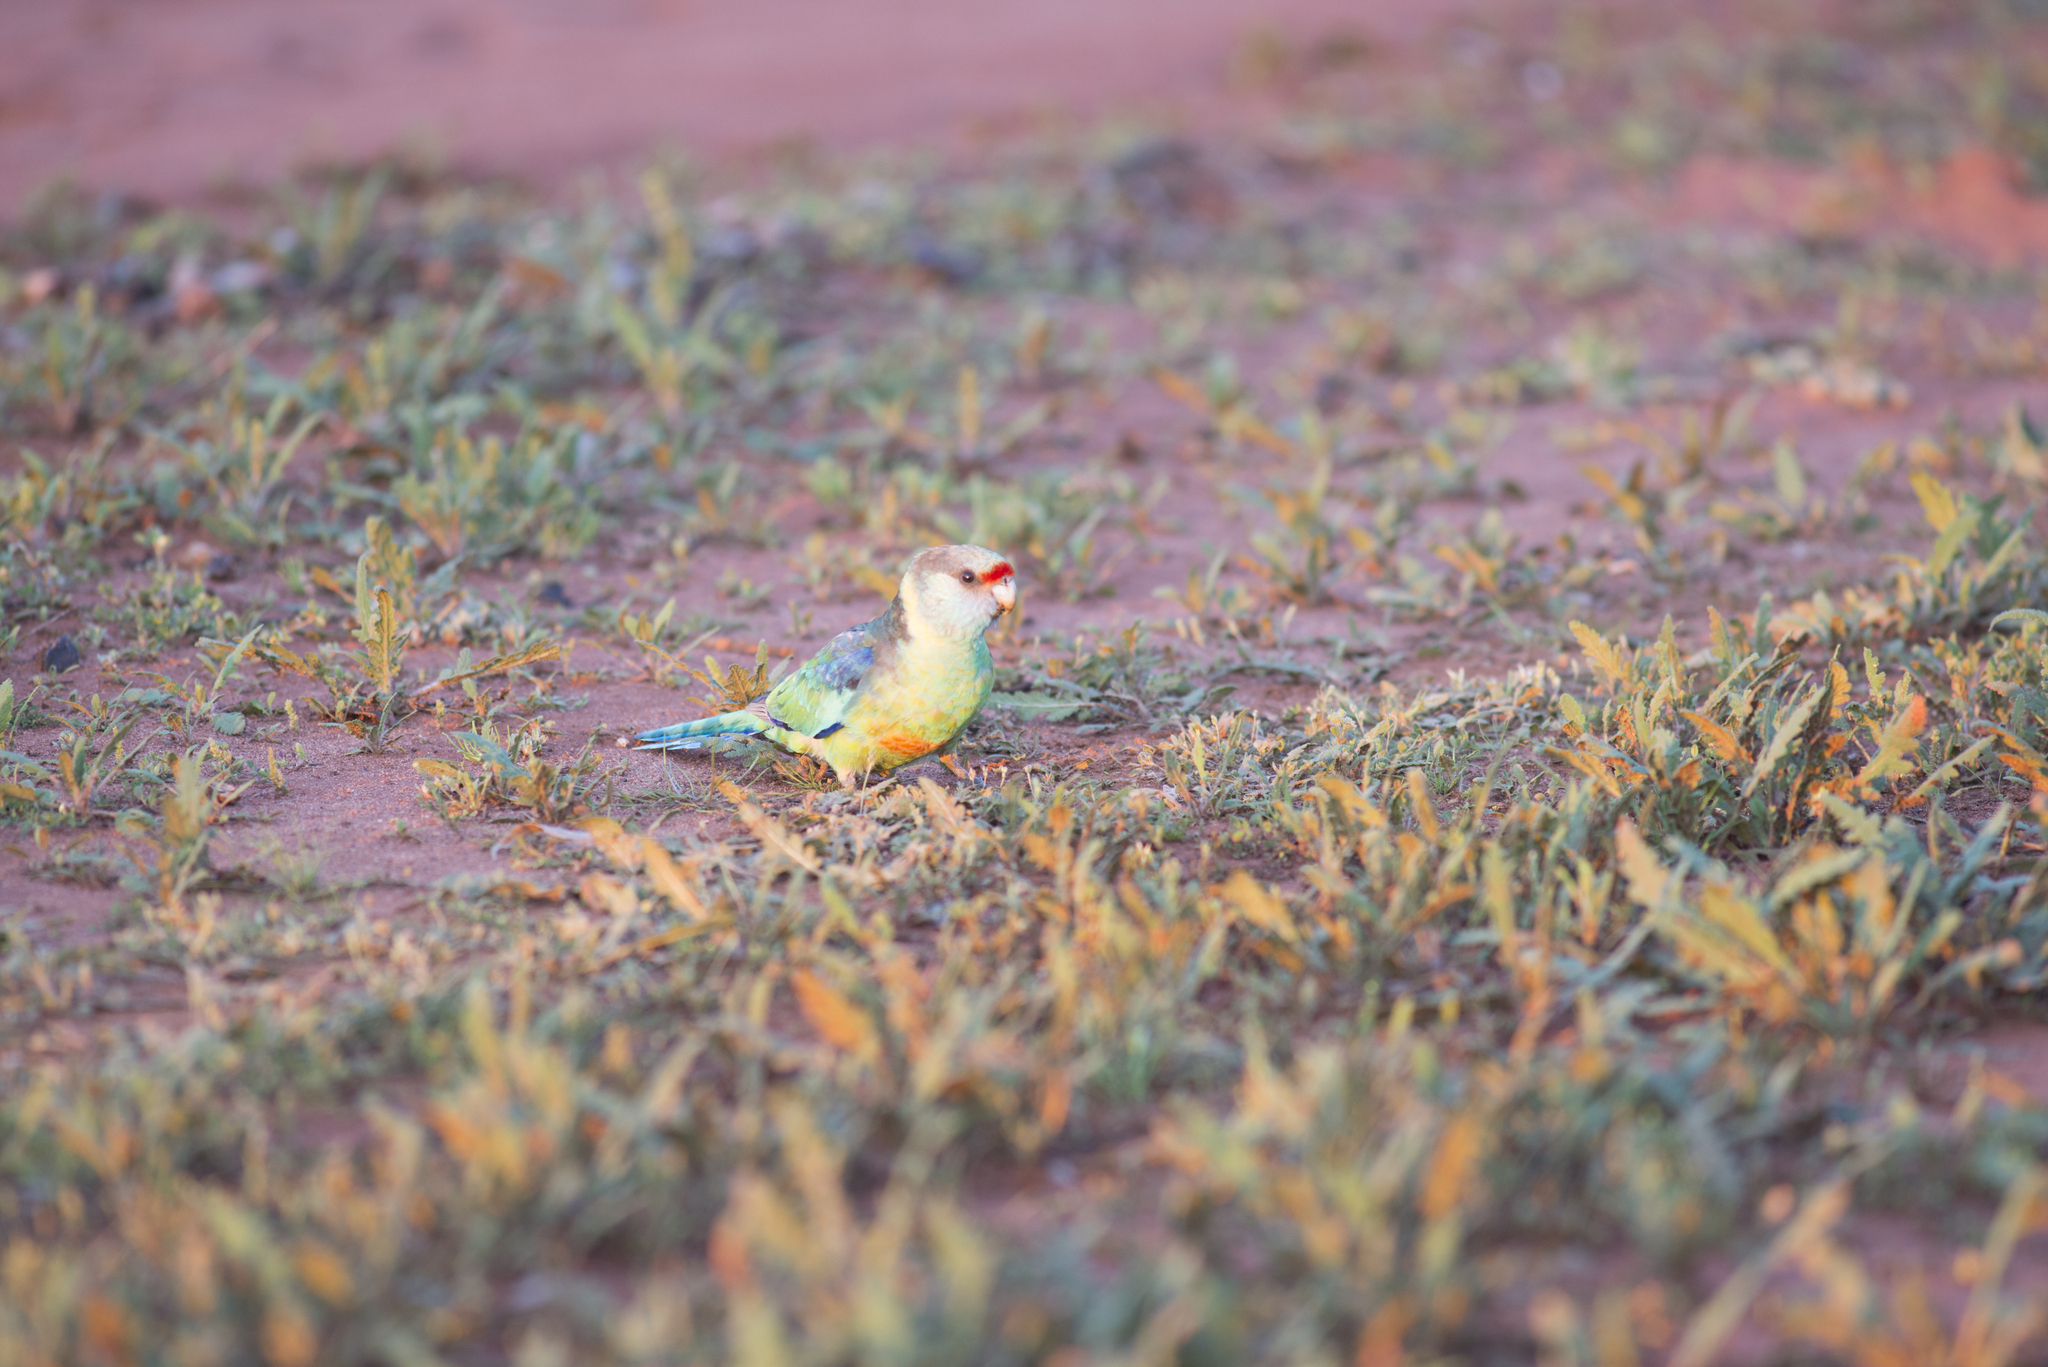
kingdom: Animalia
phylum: Chordata
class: Aves
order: Psittaciformes
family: Psittacidae
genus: Barnardius
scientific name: Barnardius zonarius
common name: Australian ringneck
